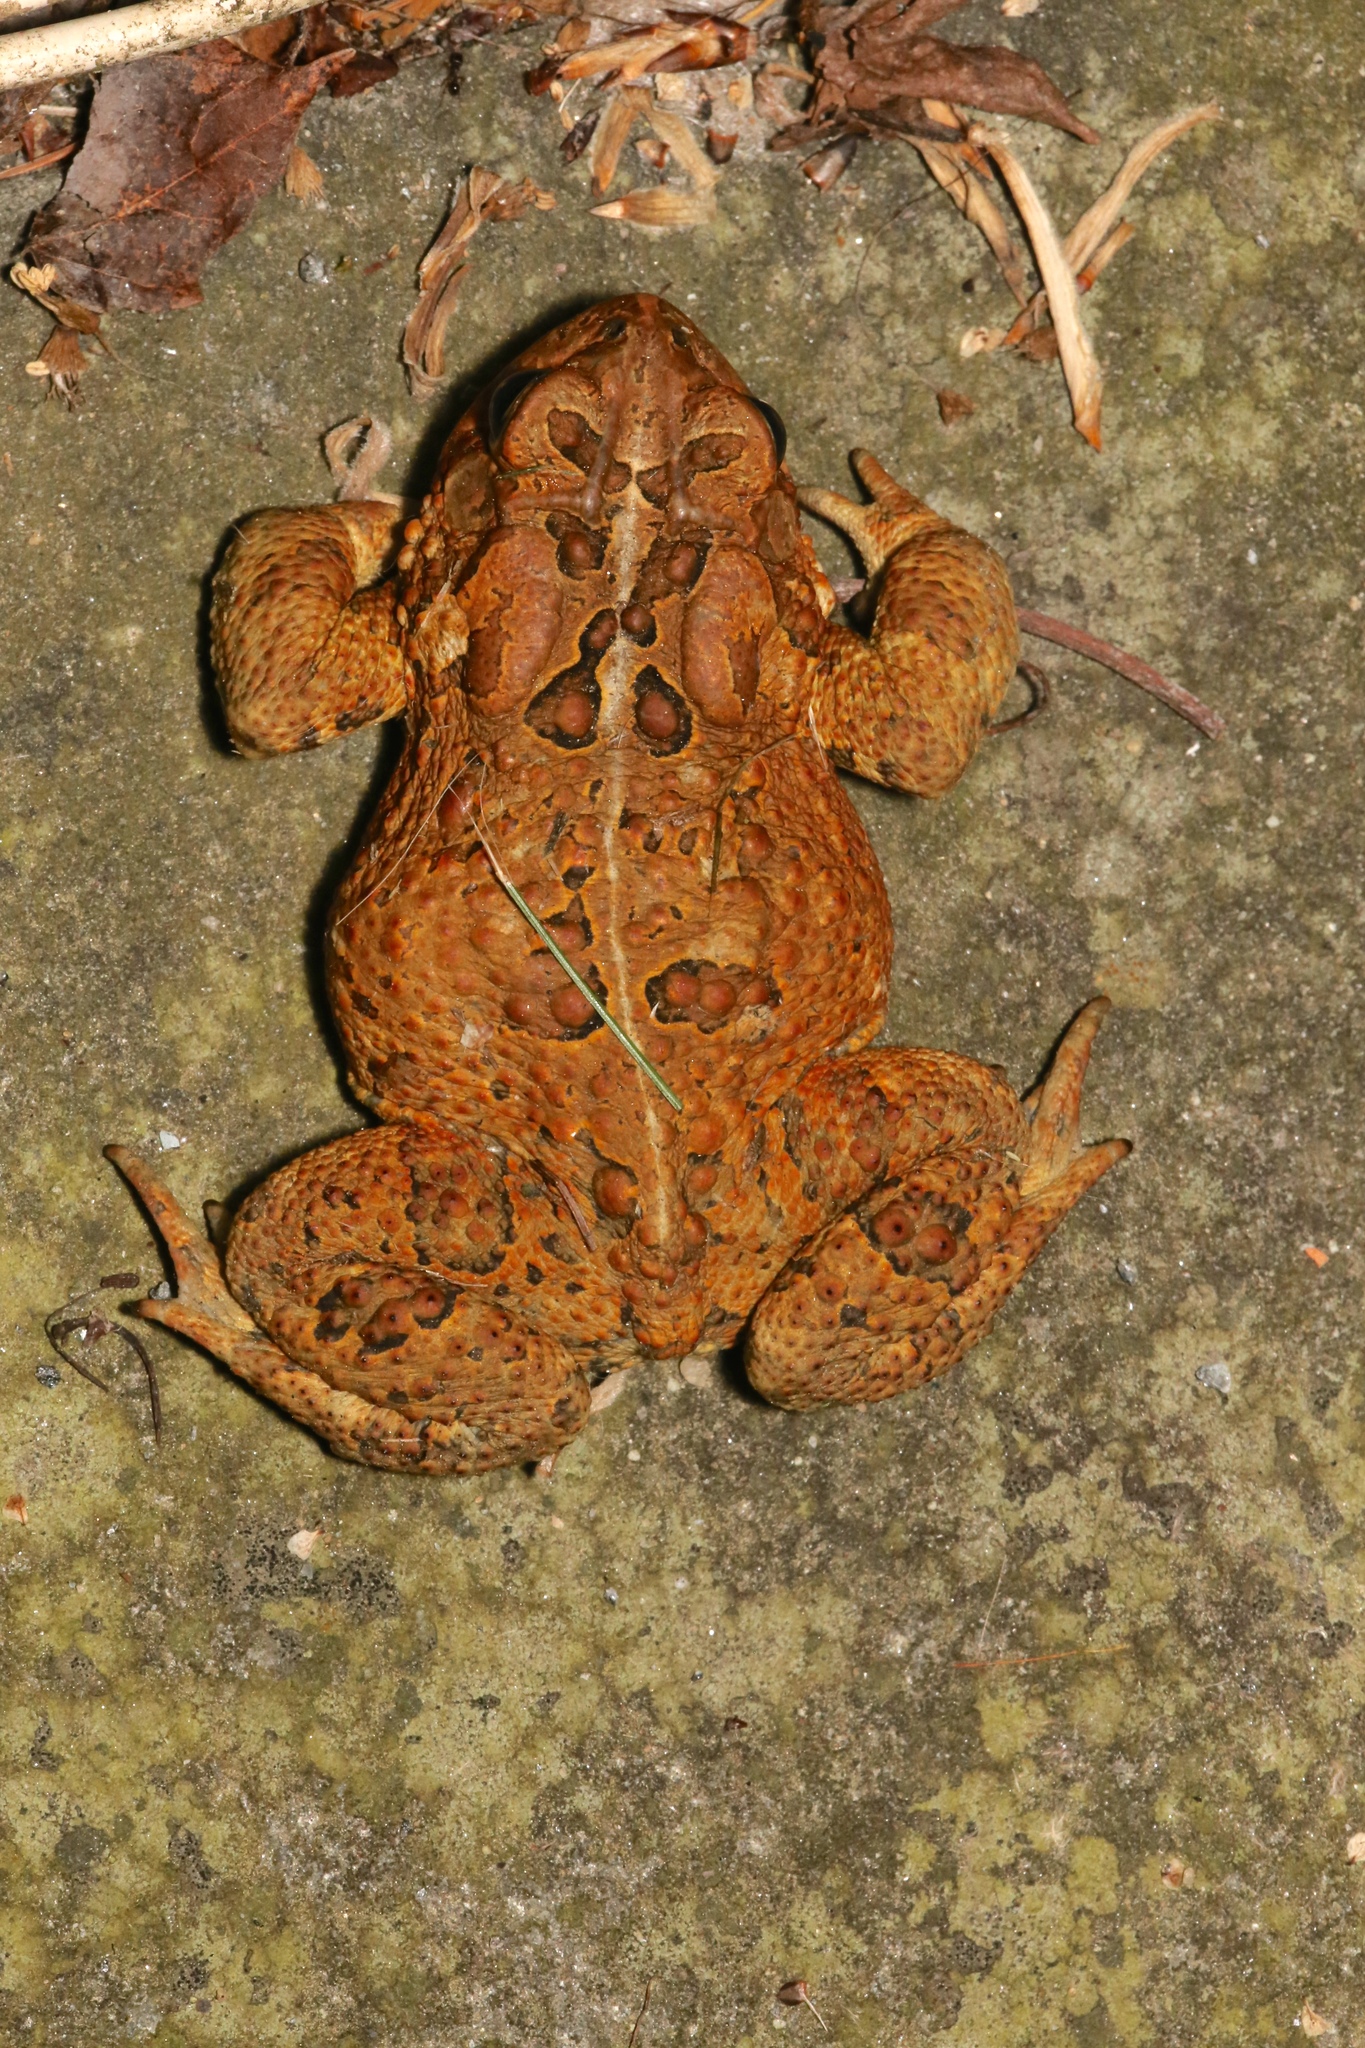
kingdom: Animalia
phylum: Chordata
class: Amphibia
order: Anura
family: Bufonidae
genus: Anaxyrus
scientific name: Anaxyrus americanus
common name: American toad
